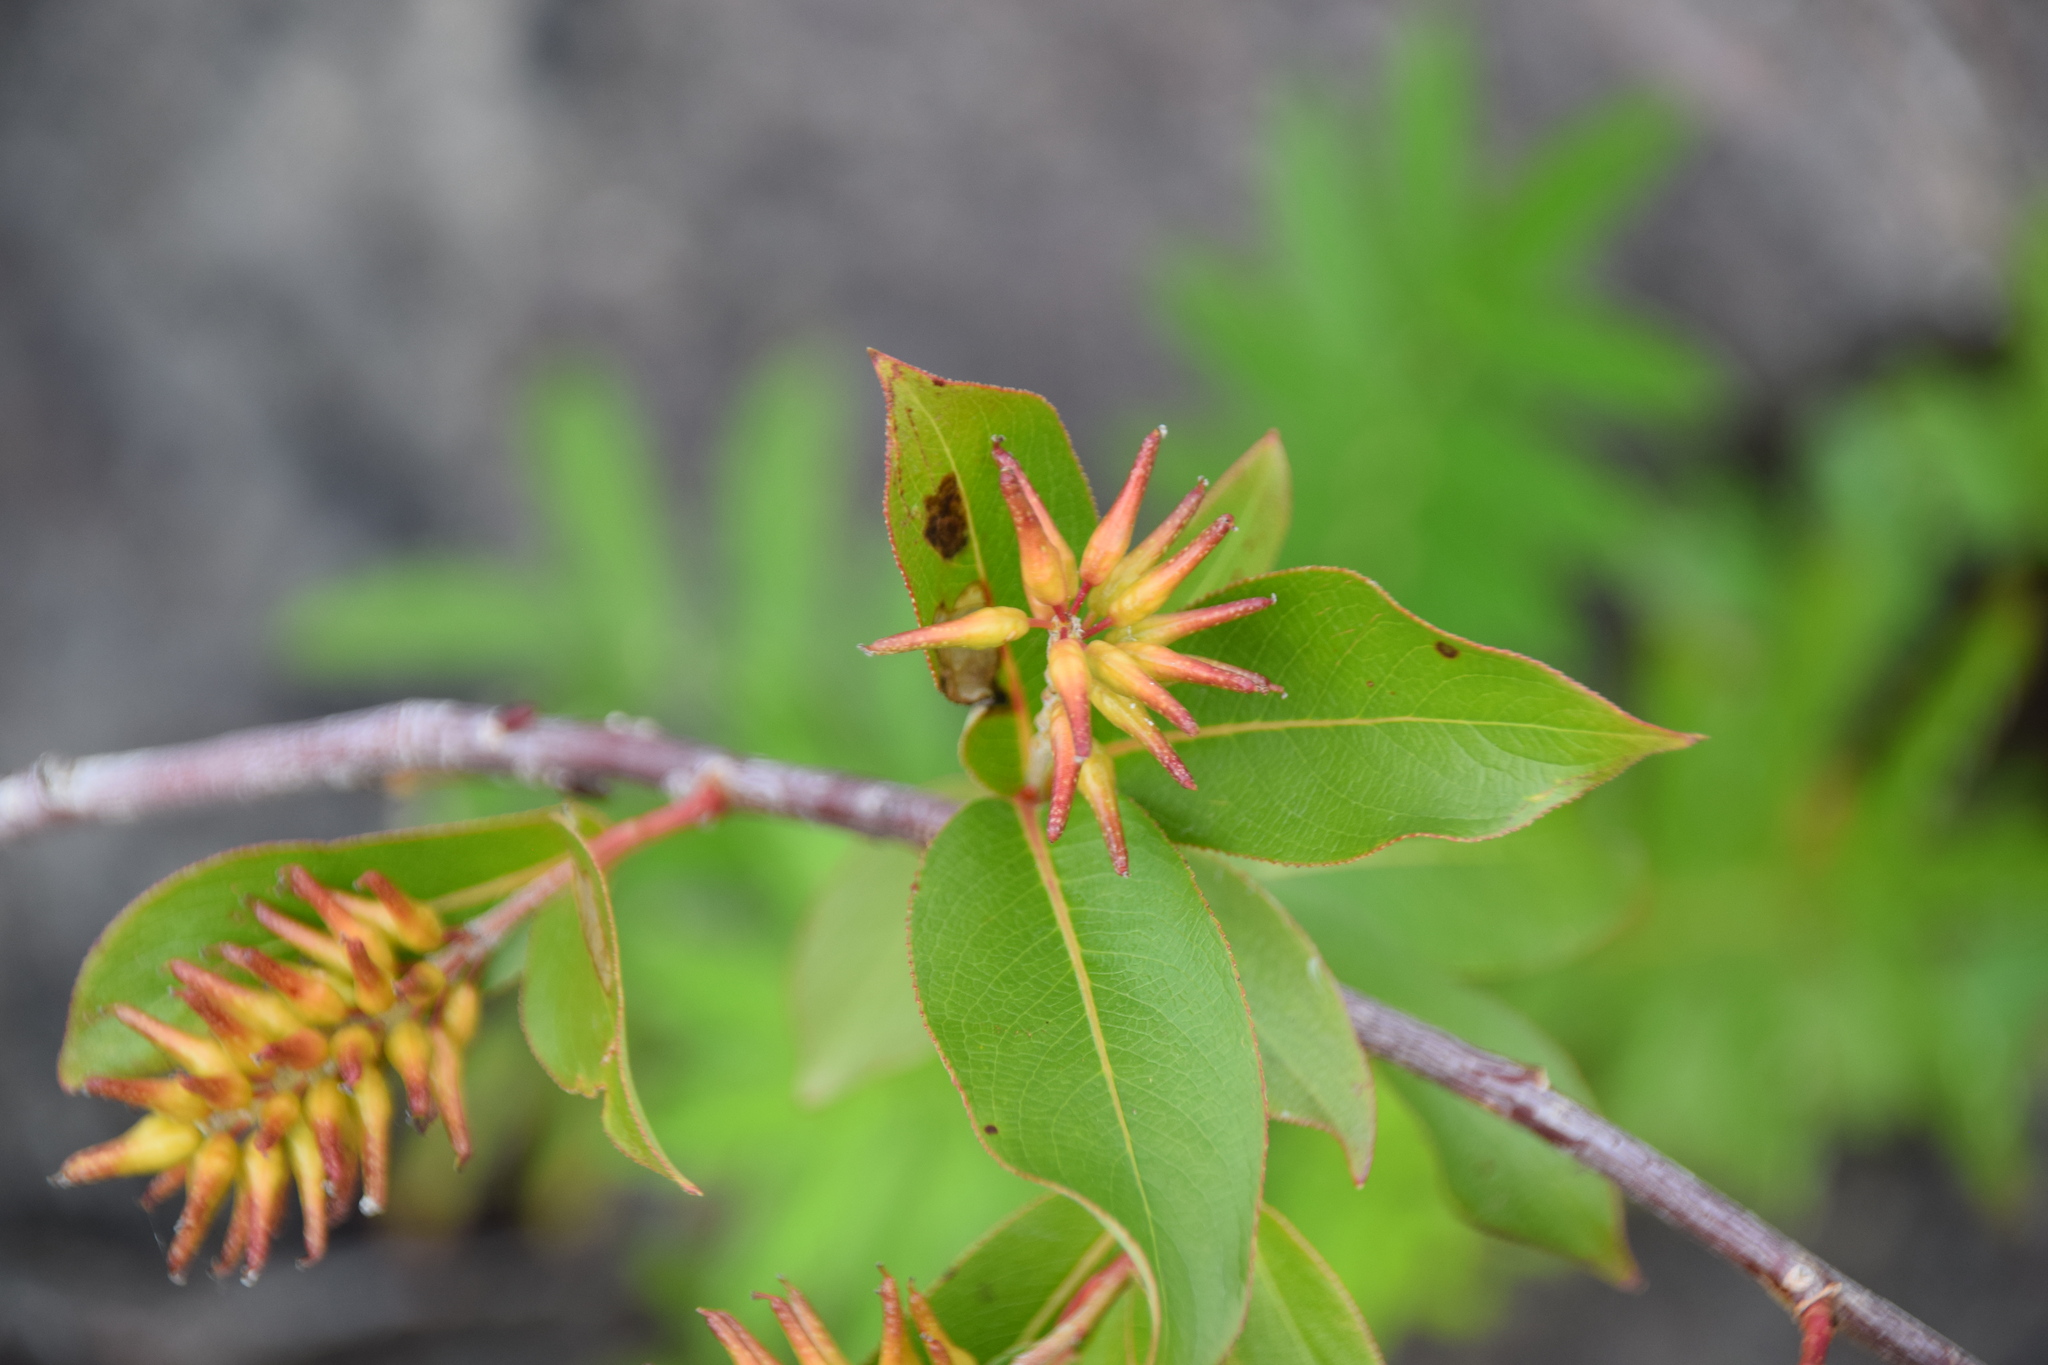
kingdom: Plantae
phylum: Tracheophyta
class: Magnoliopsida
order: Malpighiales
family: Salicaceae
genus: Salix
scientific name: Salix serissima
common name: Autumn willow
